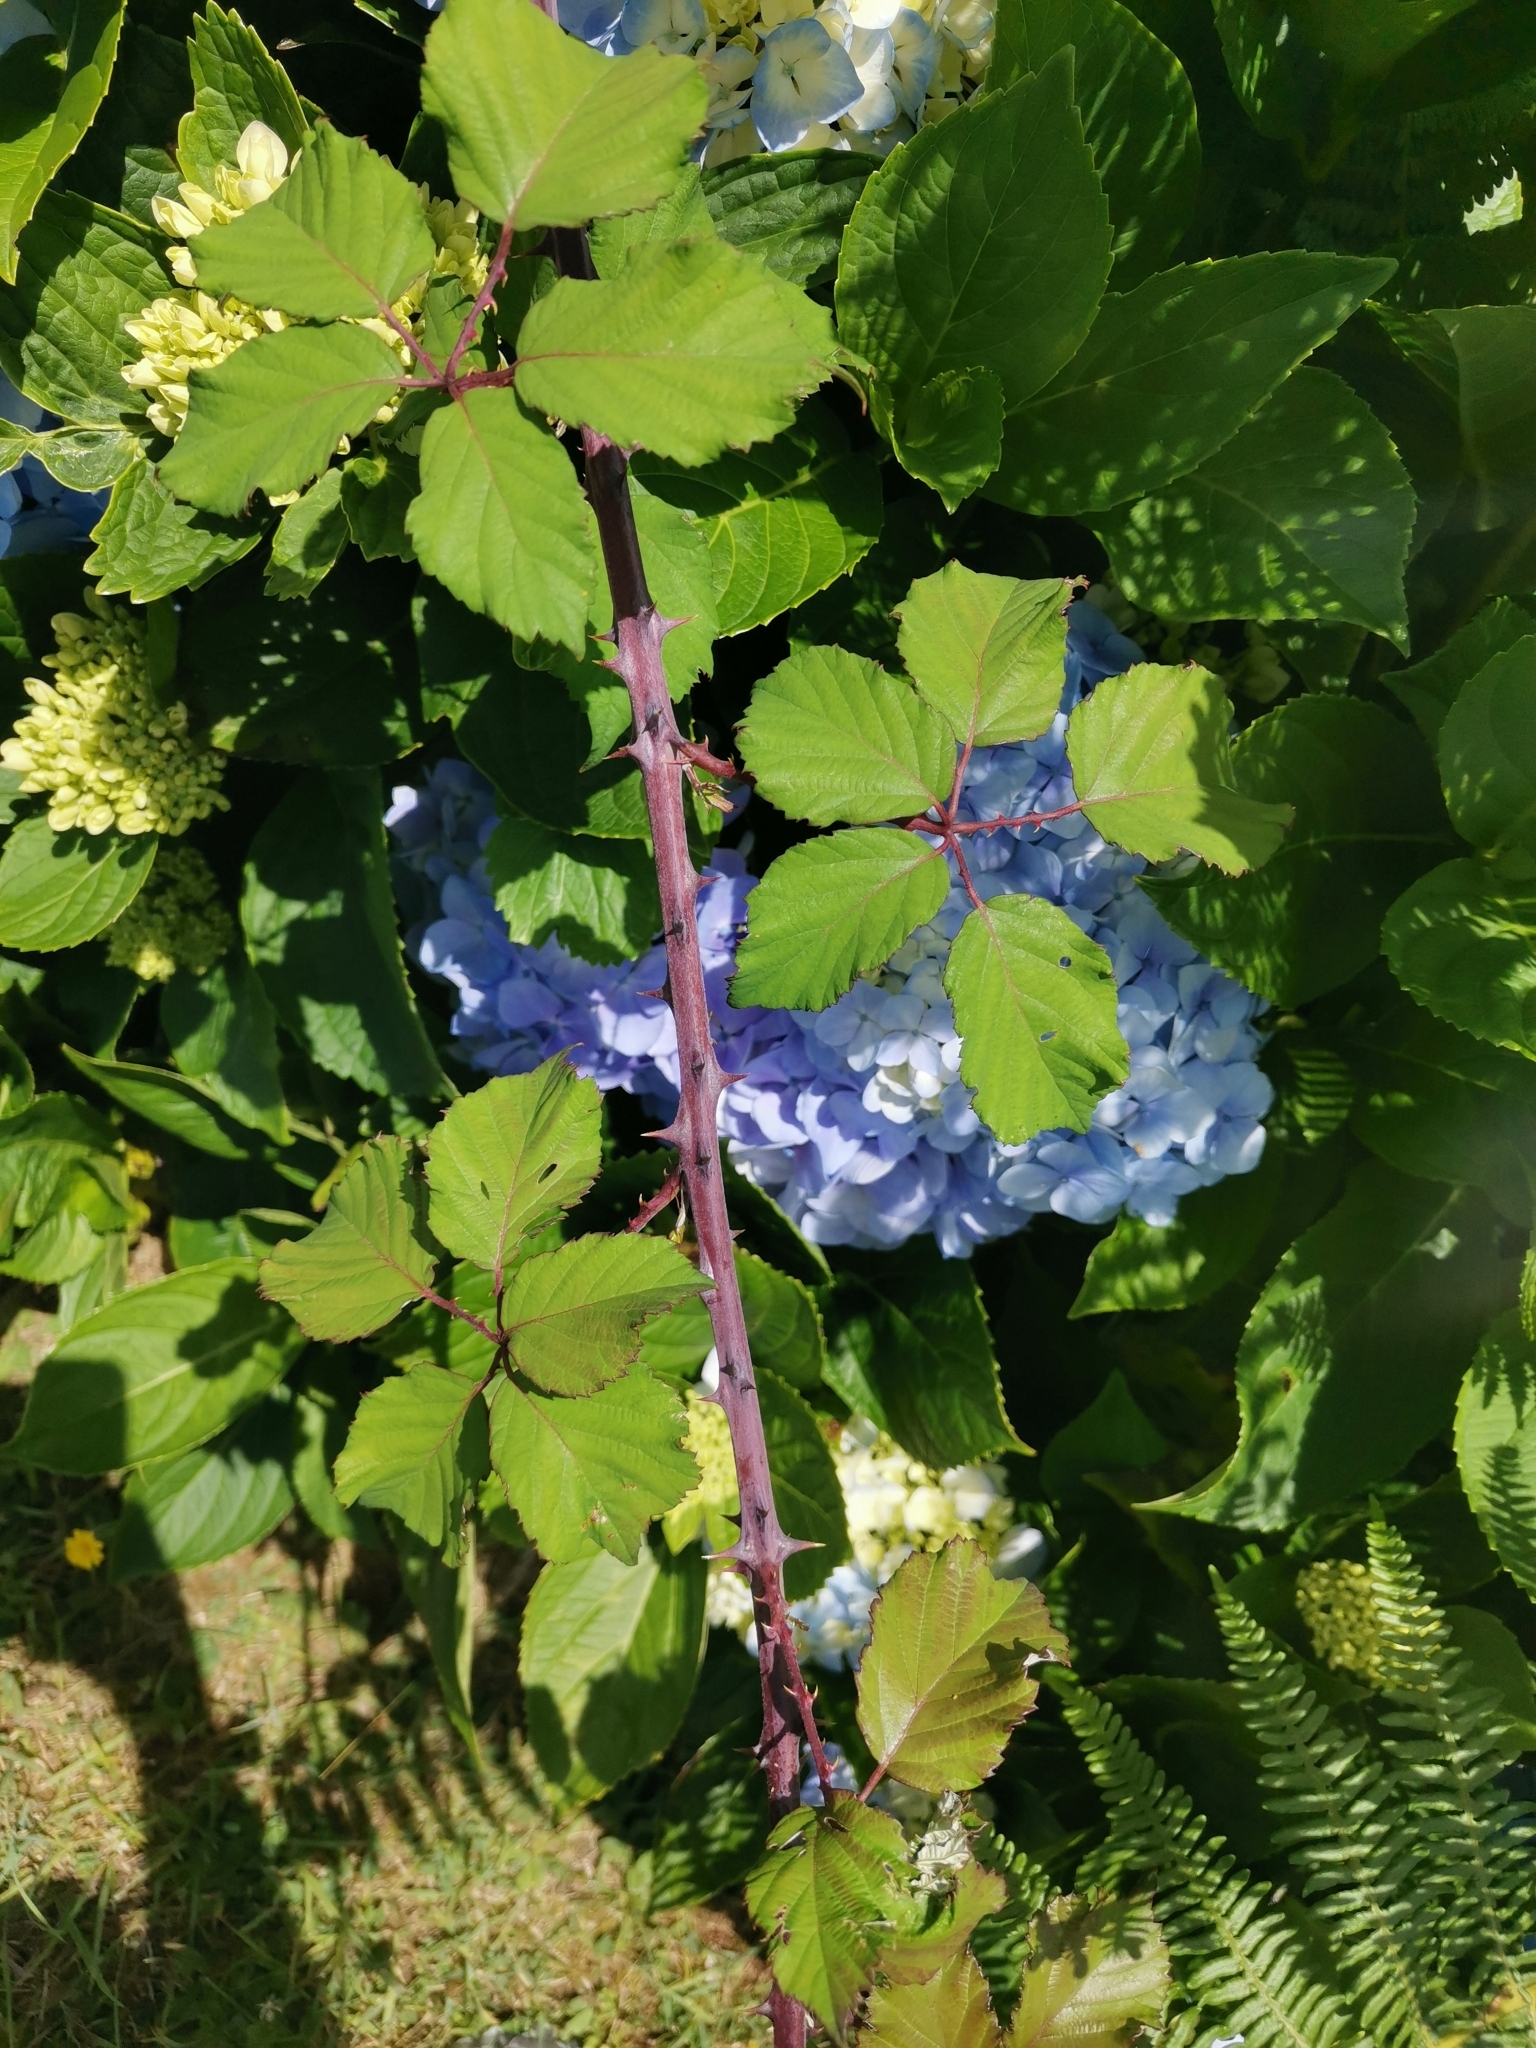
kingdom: Plantae
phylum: Tracheophyta
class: Magnoliopsida
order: Rosales
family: Rosaceae
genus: Rubus
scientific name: Rubus ulmifolius
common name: Elmleaf blackberry
